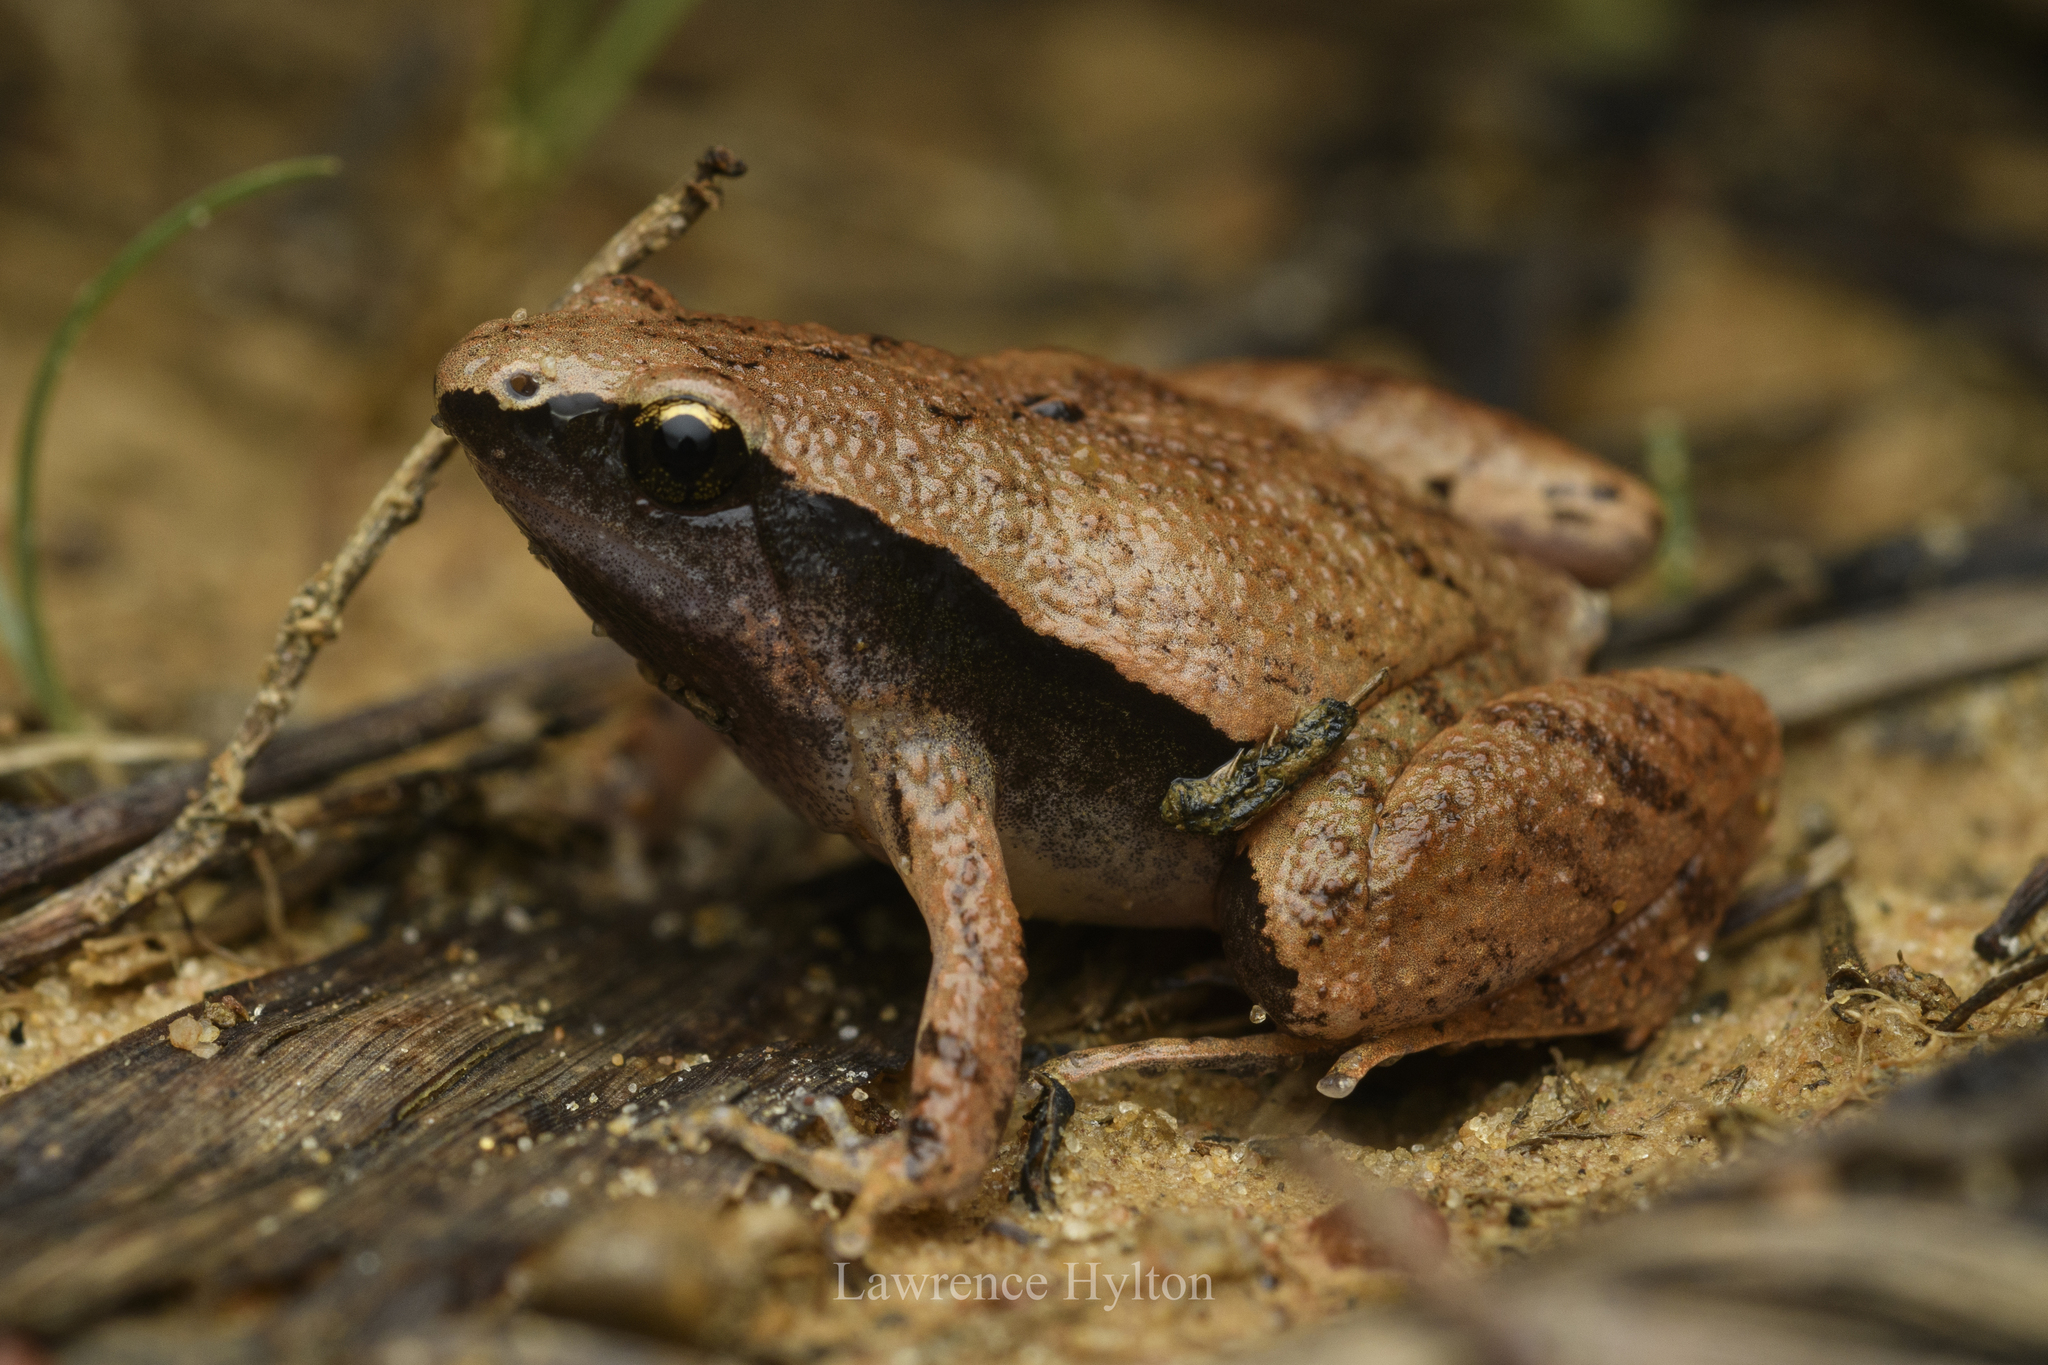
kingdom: Animalia
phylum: Chordata
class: Amphibia
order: Anura
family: Microhylidae
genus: Microhyla
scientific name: Microhyla heymonsi
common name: Taiwan rice frog,dark sided chorus frog
